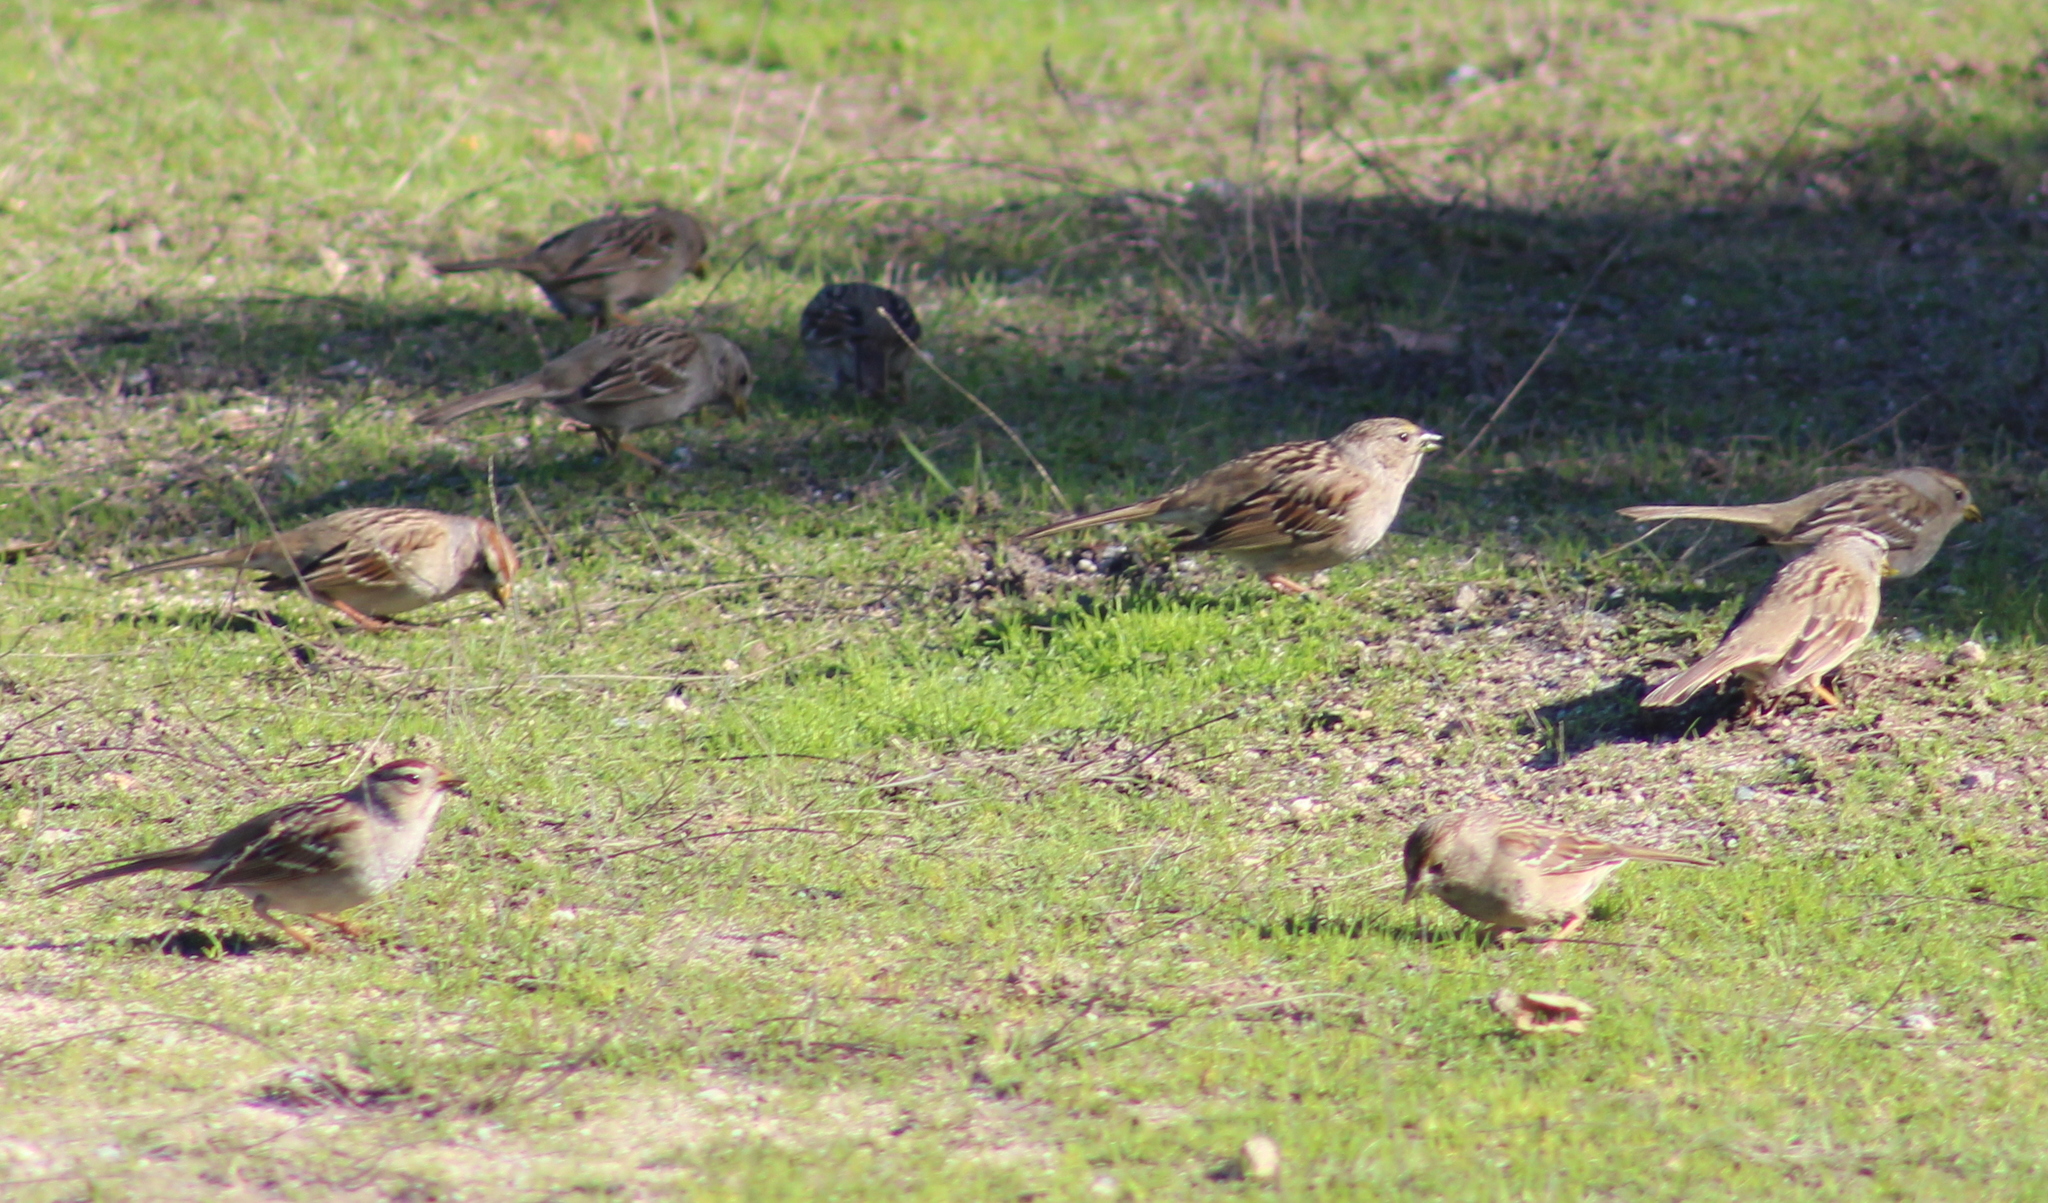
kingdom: Animalia
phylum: Chordata
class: Aves
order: Passeriformes
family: Passerellidae
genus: Zonotrichia
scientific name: Zonotrichia leucophrys
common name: White-crowned sparrow
